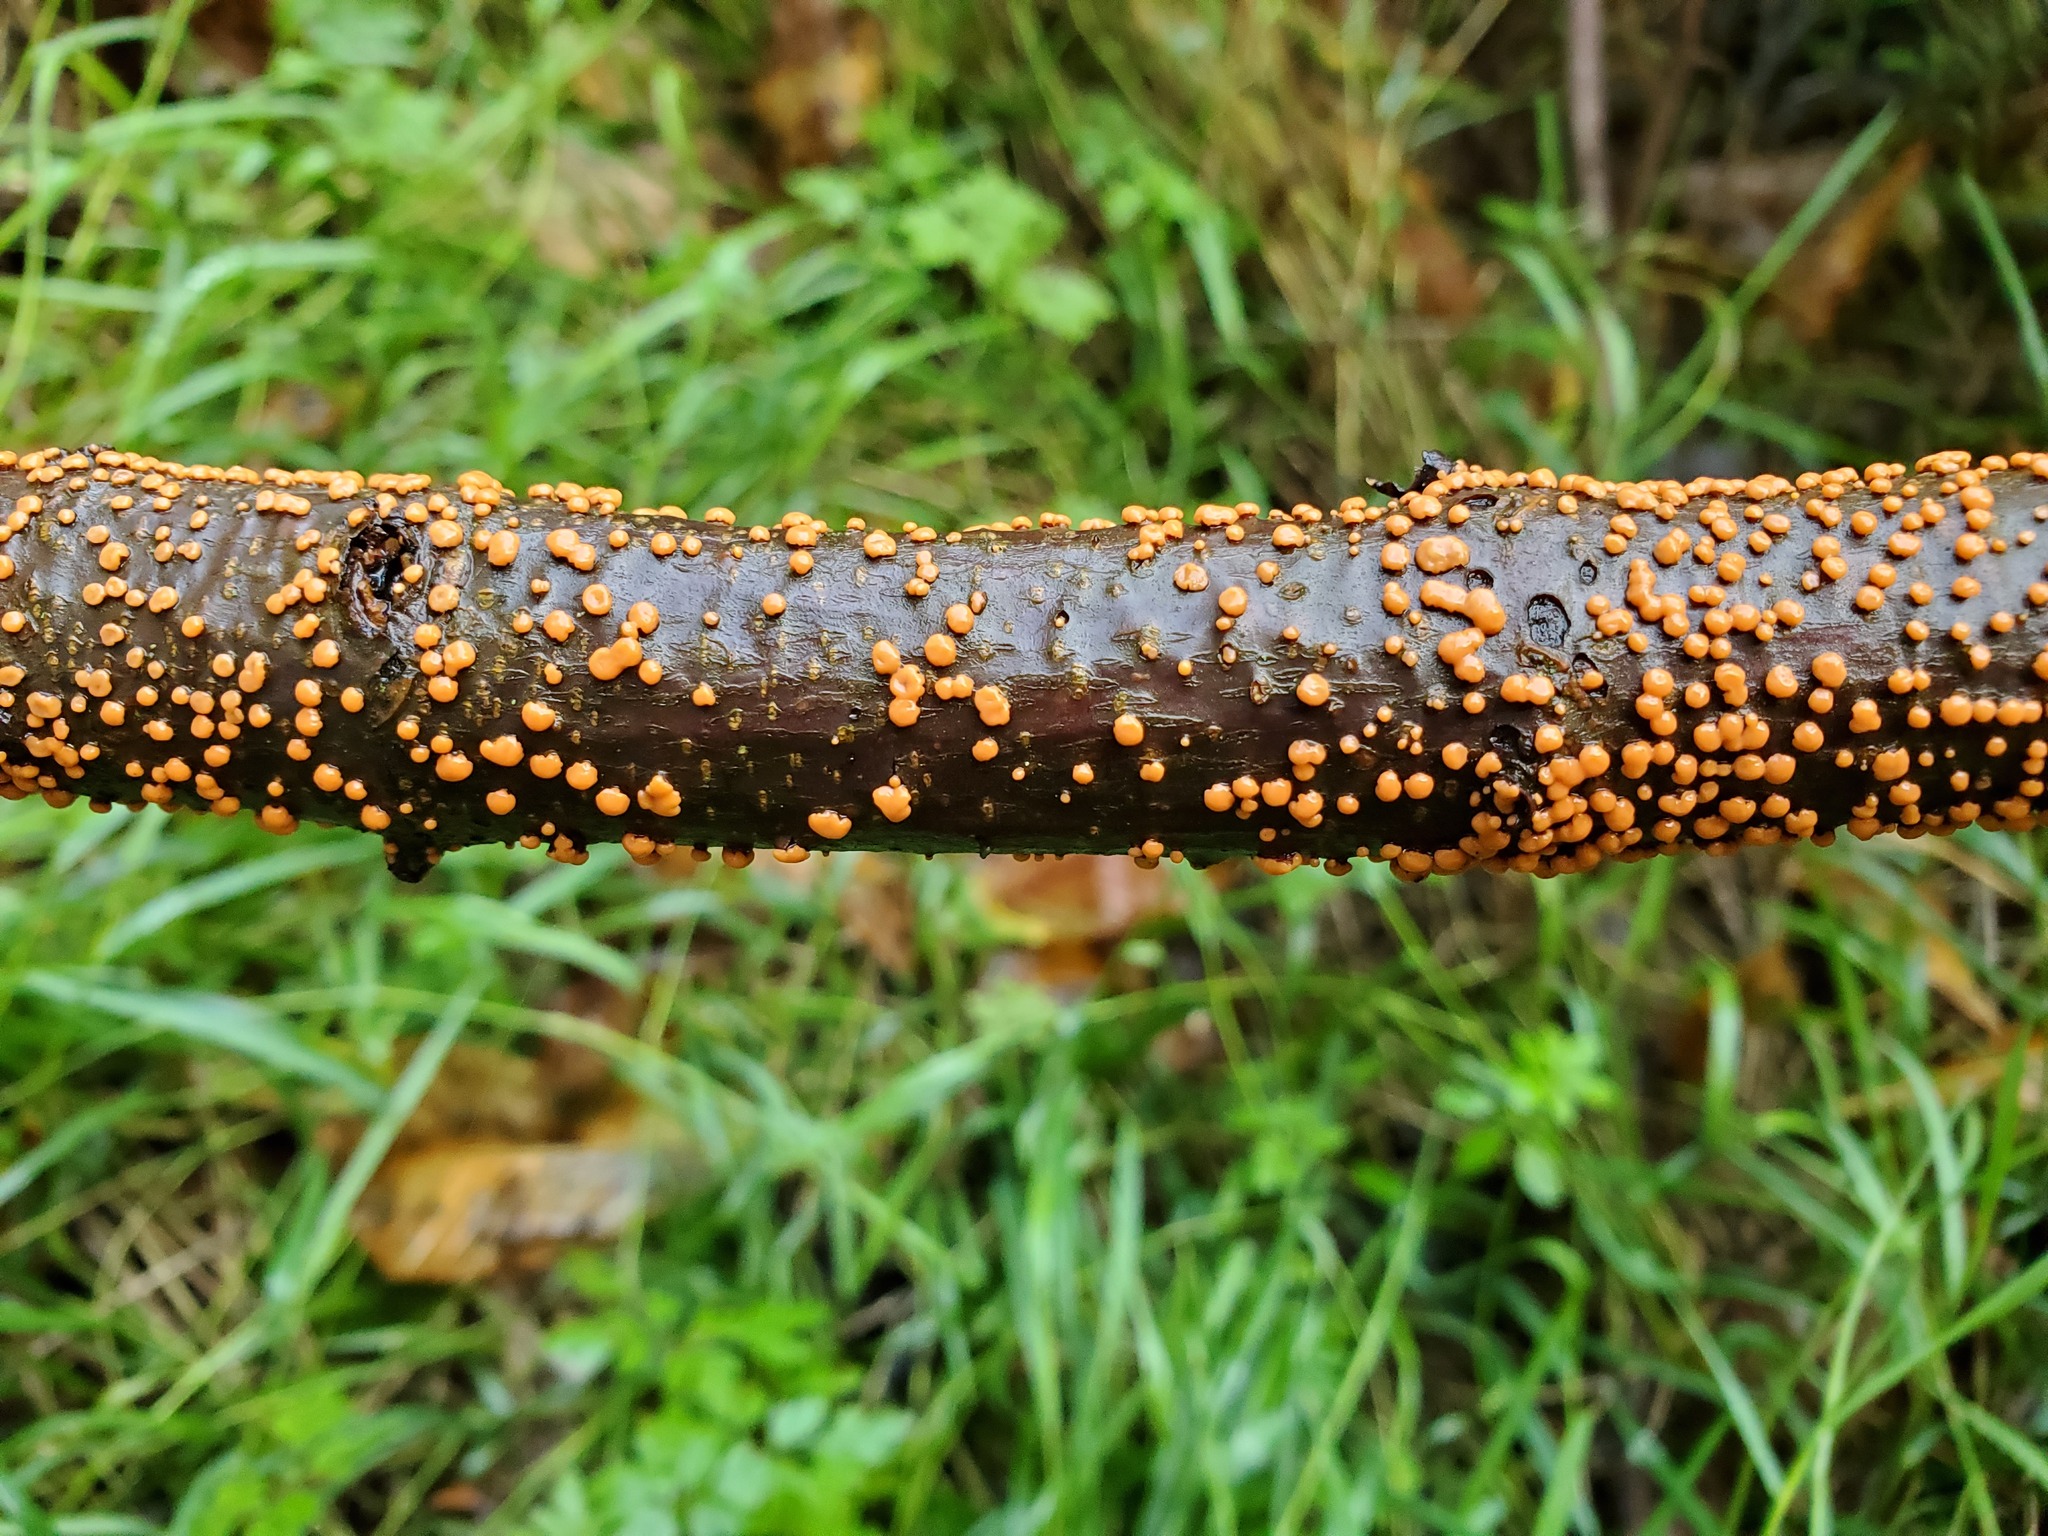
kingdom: Fungi
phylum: Ascomycota
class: Sordariomycetes
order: Hypocreales
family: Nectriaceae
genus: Nectria
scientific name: Nectria cinnabarina
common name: Coral spot
